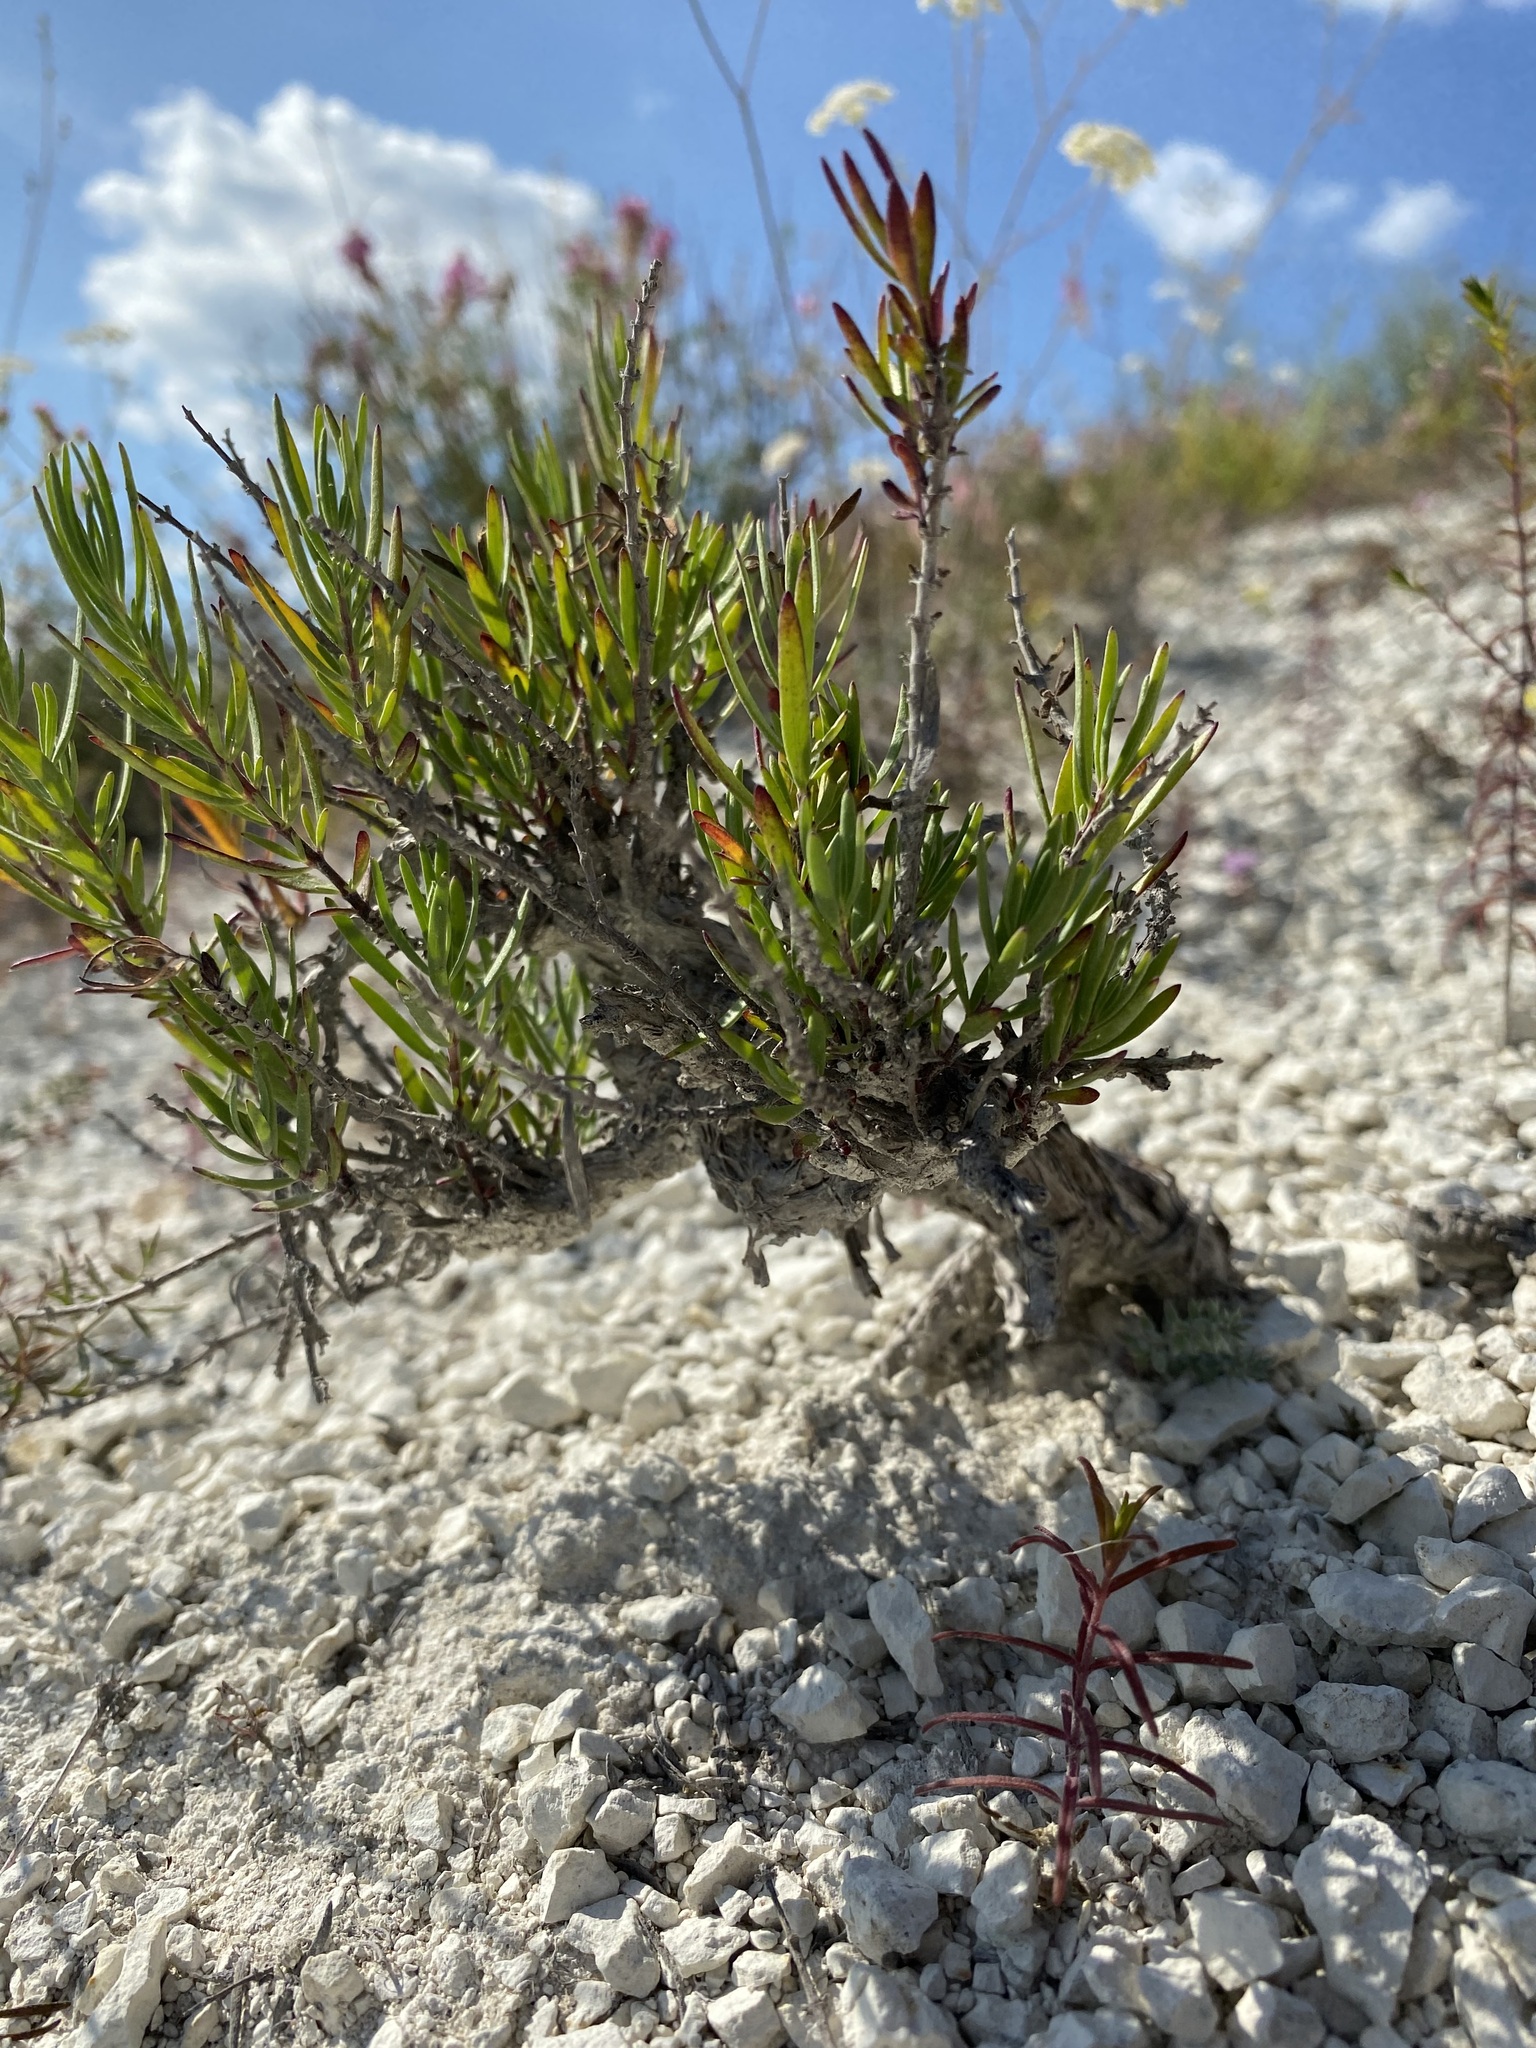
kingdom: Plantae
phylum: Tracheophyta
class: Magnoliopsida
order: Lamiales
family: Lamiaceae
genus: Hyssopus
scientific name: Hyssopus officinalis
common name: Hyssop
